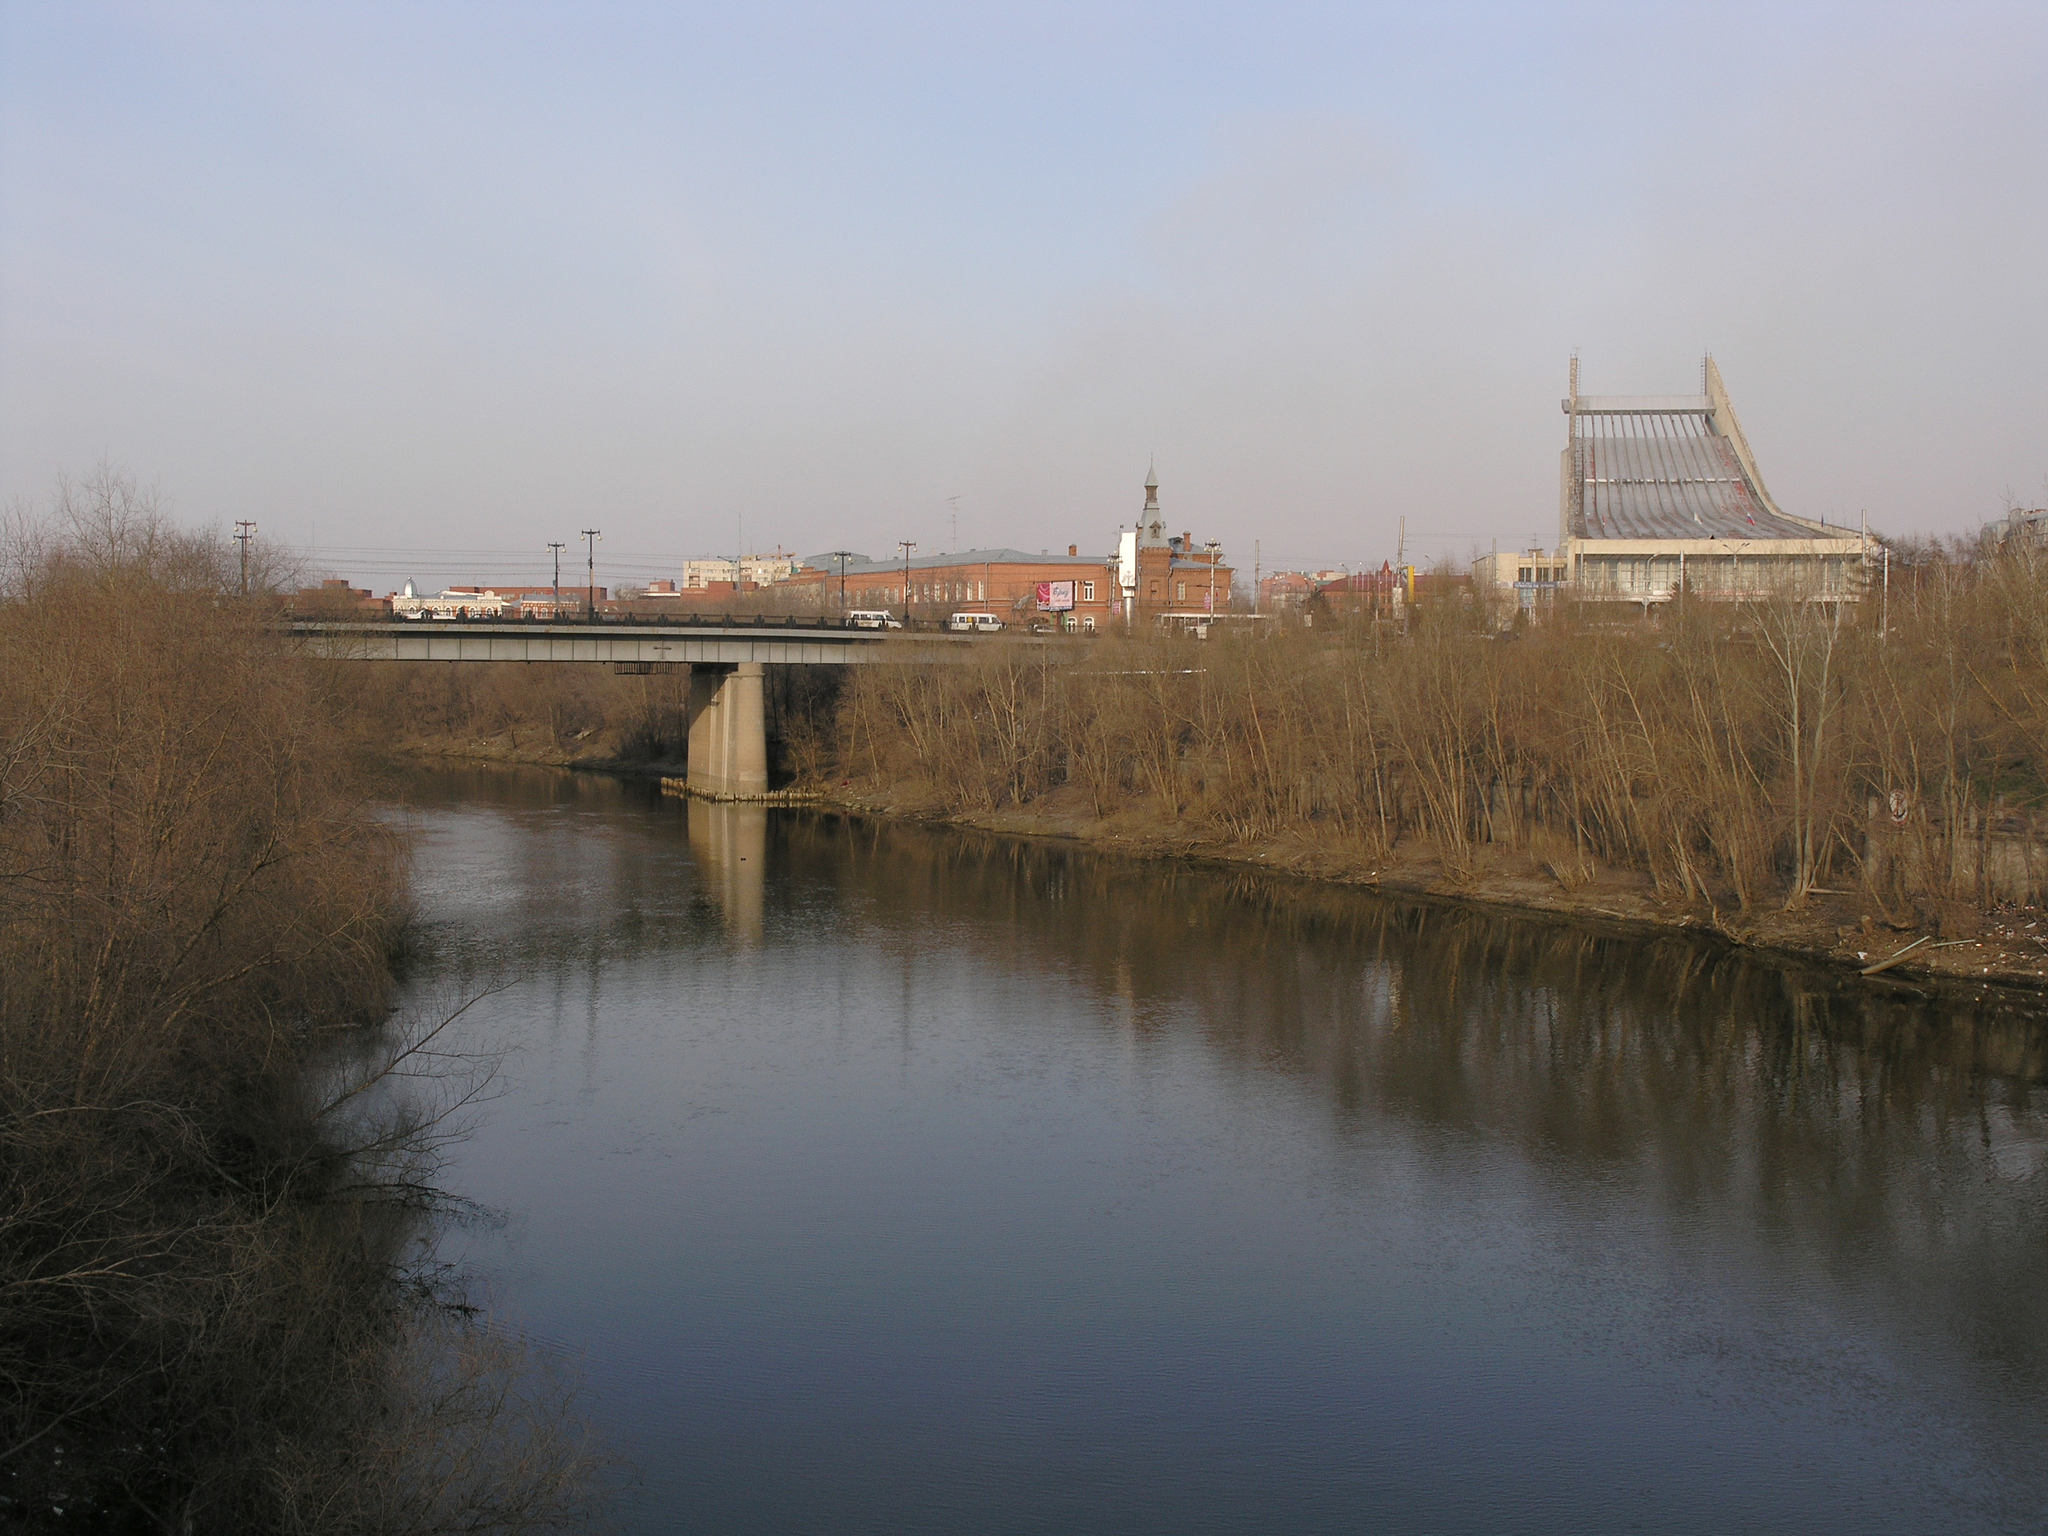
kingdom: Plantae
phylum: Tracheophyta
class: Magnoliopsida
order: Malpighiales
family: Salicaceae
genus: Salix
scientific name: Salix alba
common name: White willow
